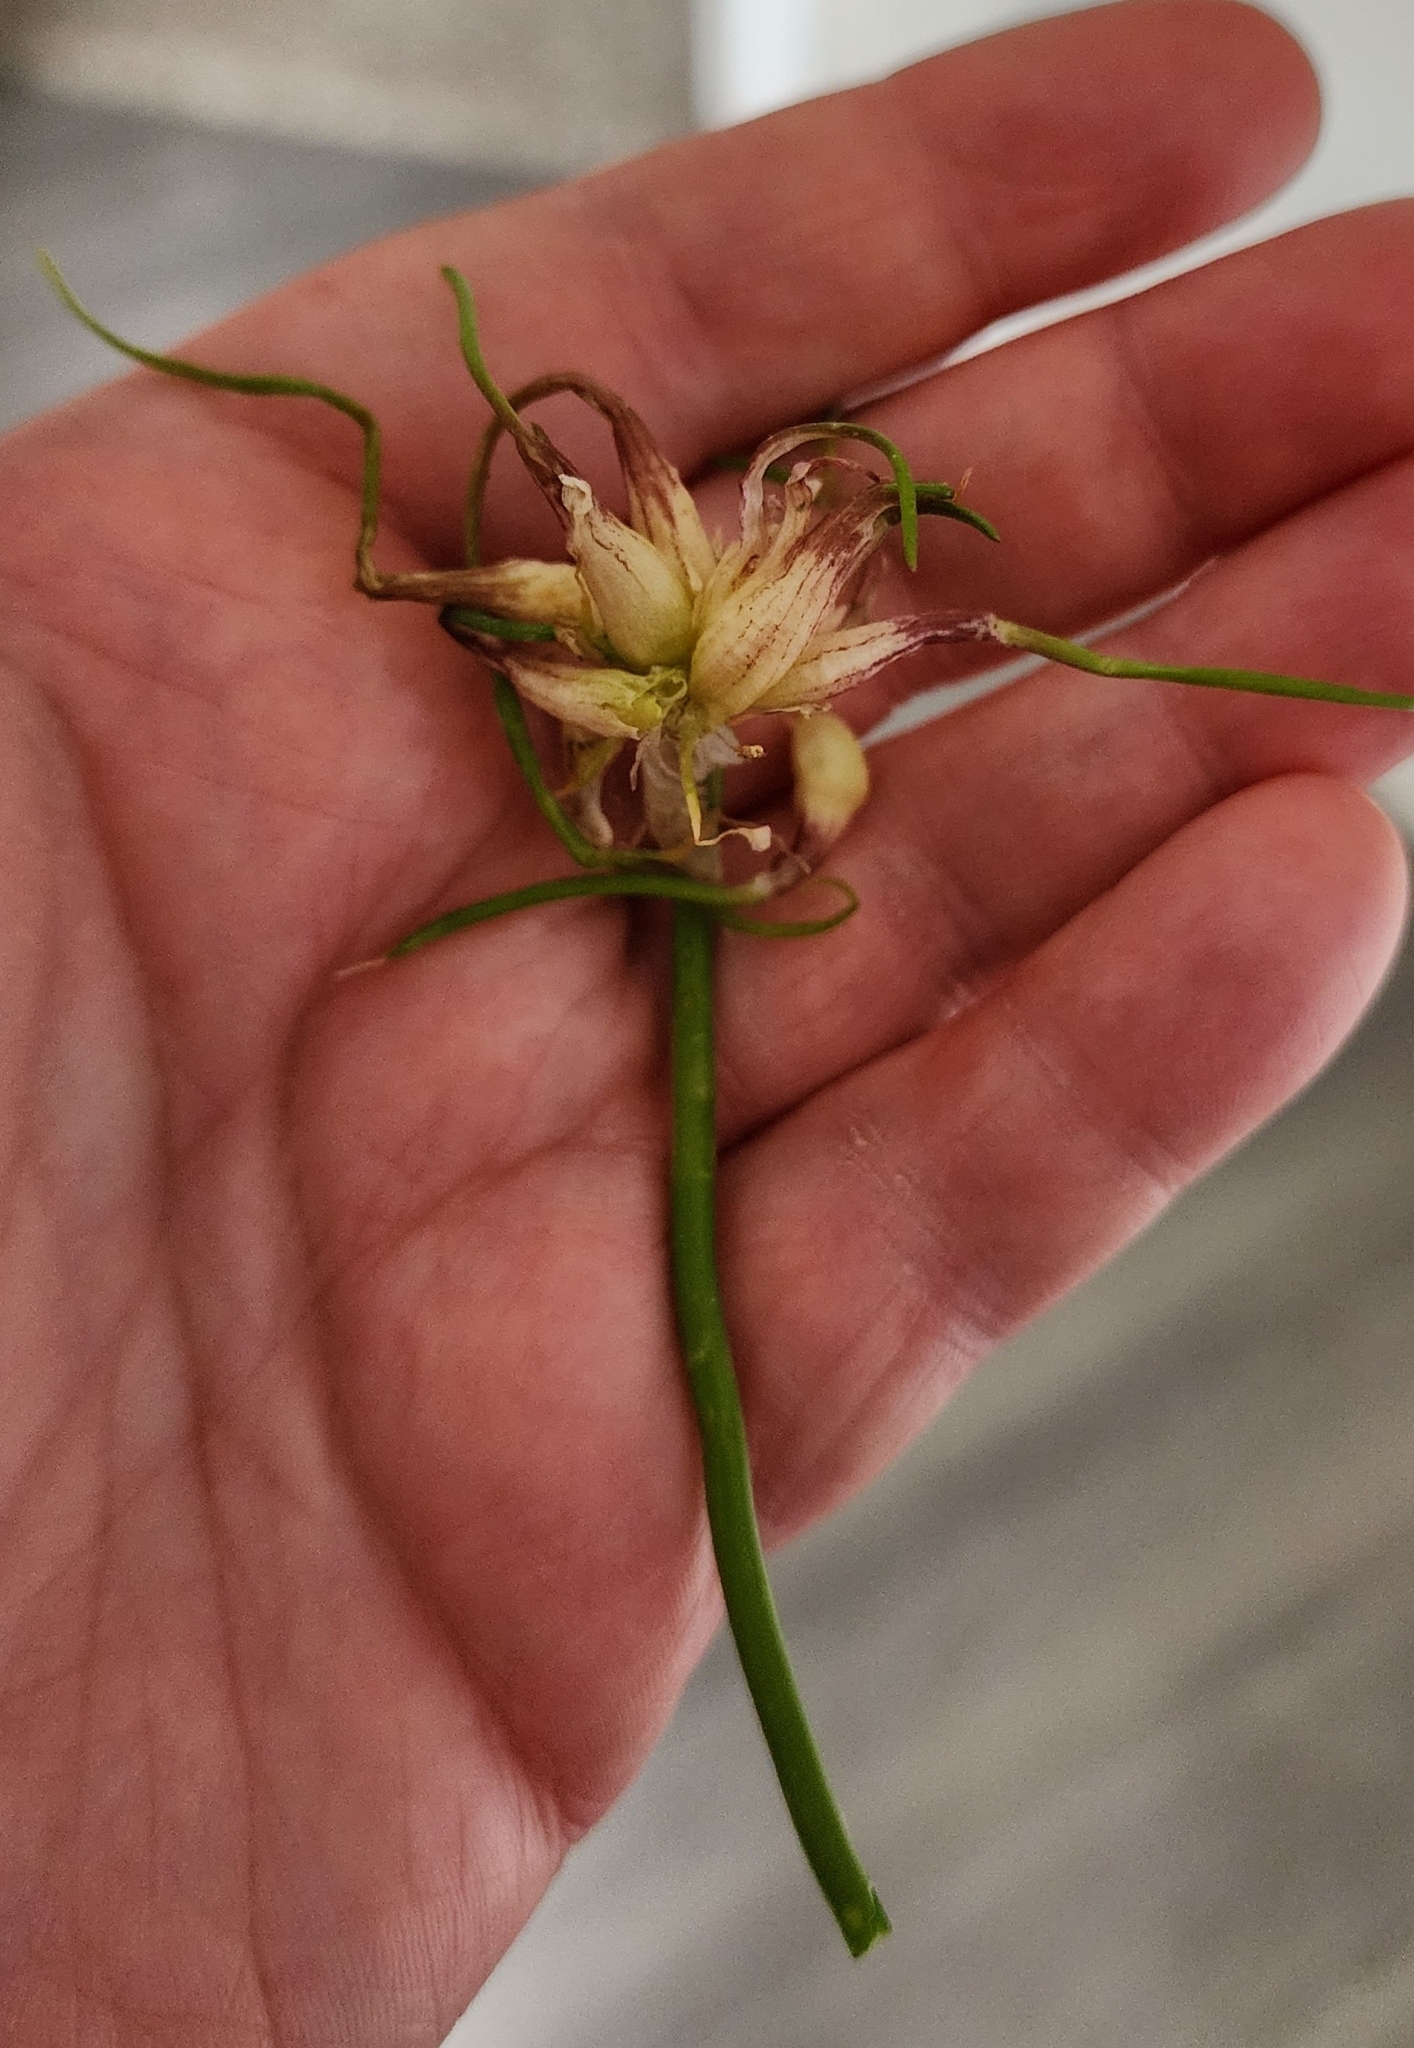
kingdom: Plantae
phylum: Tracheophyta
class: Liliopsida
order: Asparagales
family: Amaryllidaceae
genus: Allium
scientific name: Allium canadense
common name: Meadow garlic
